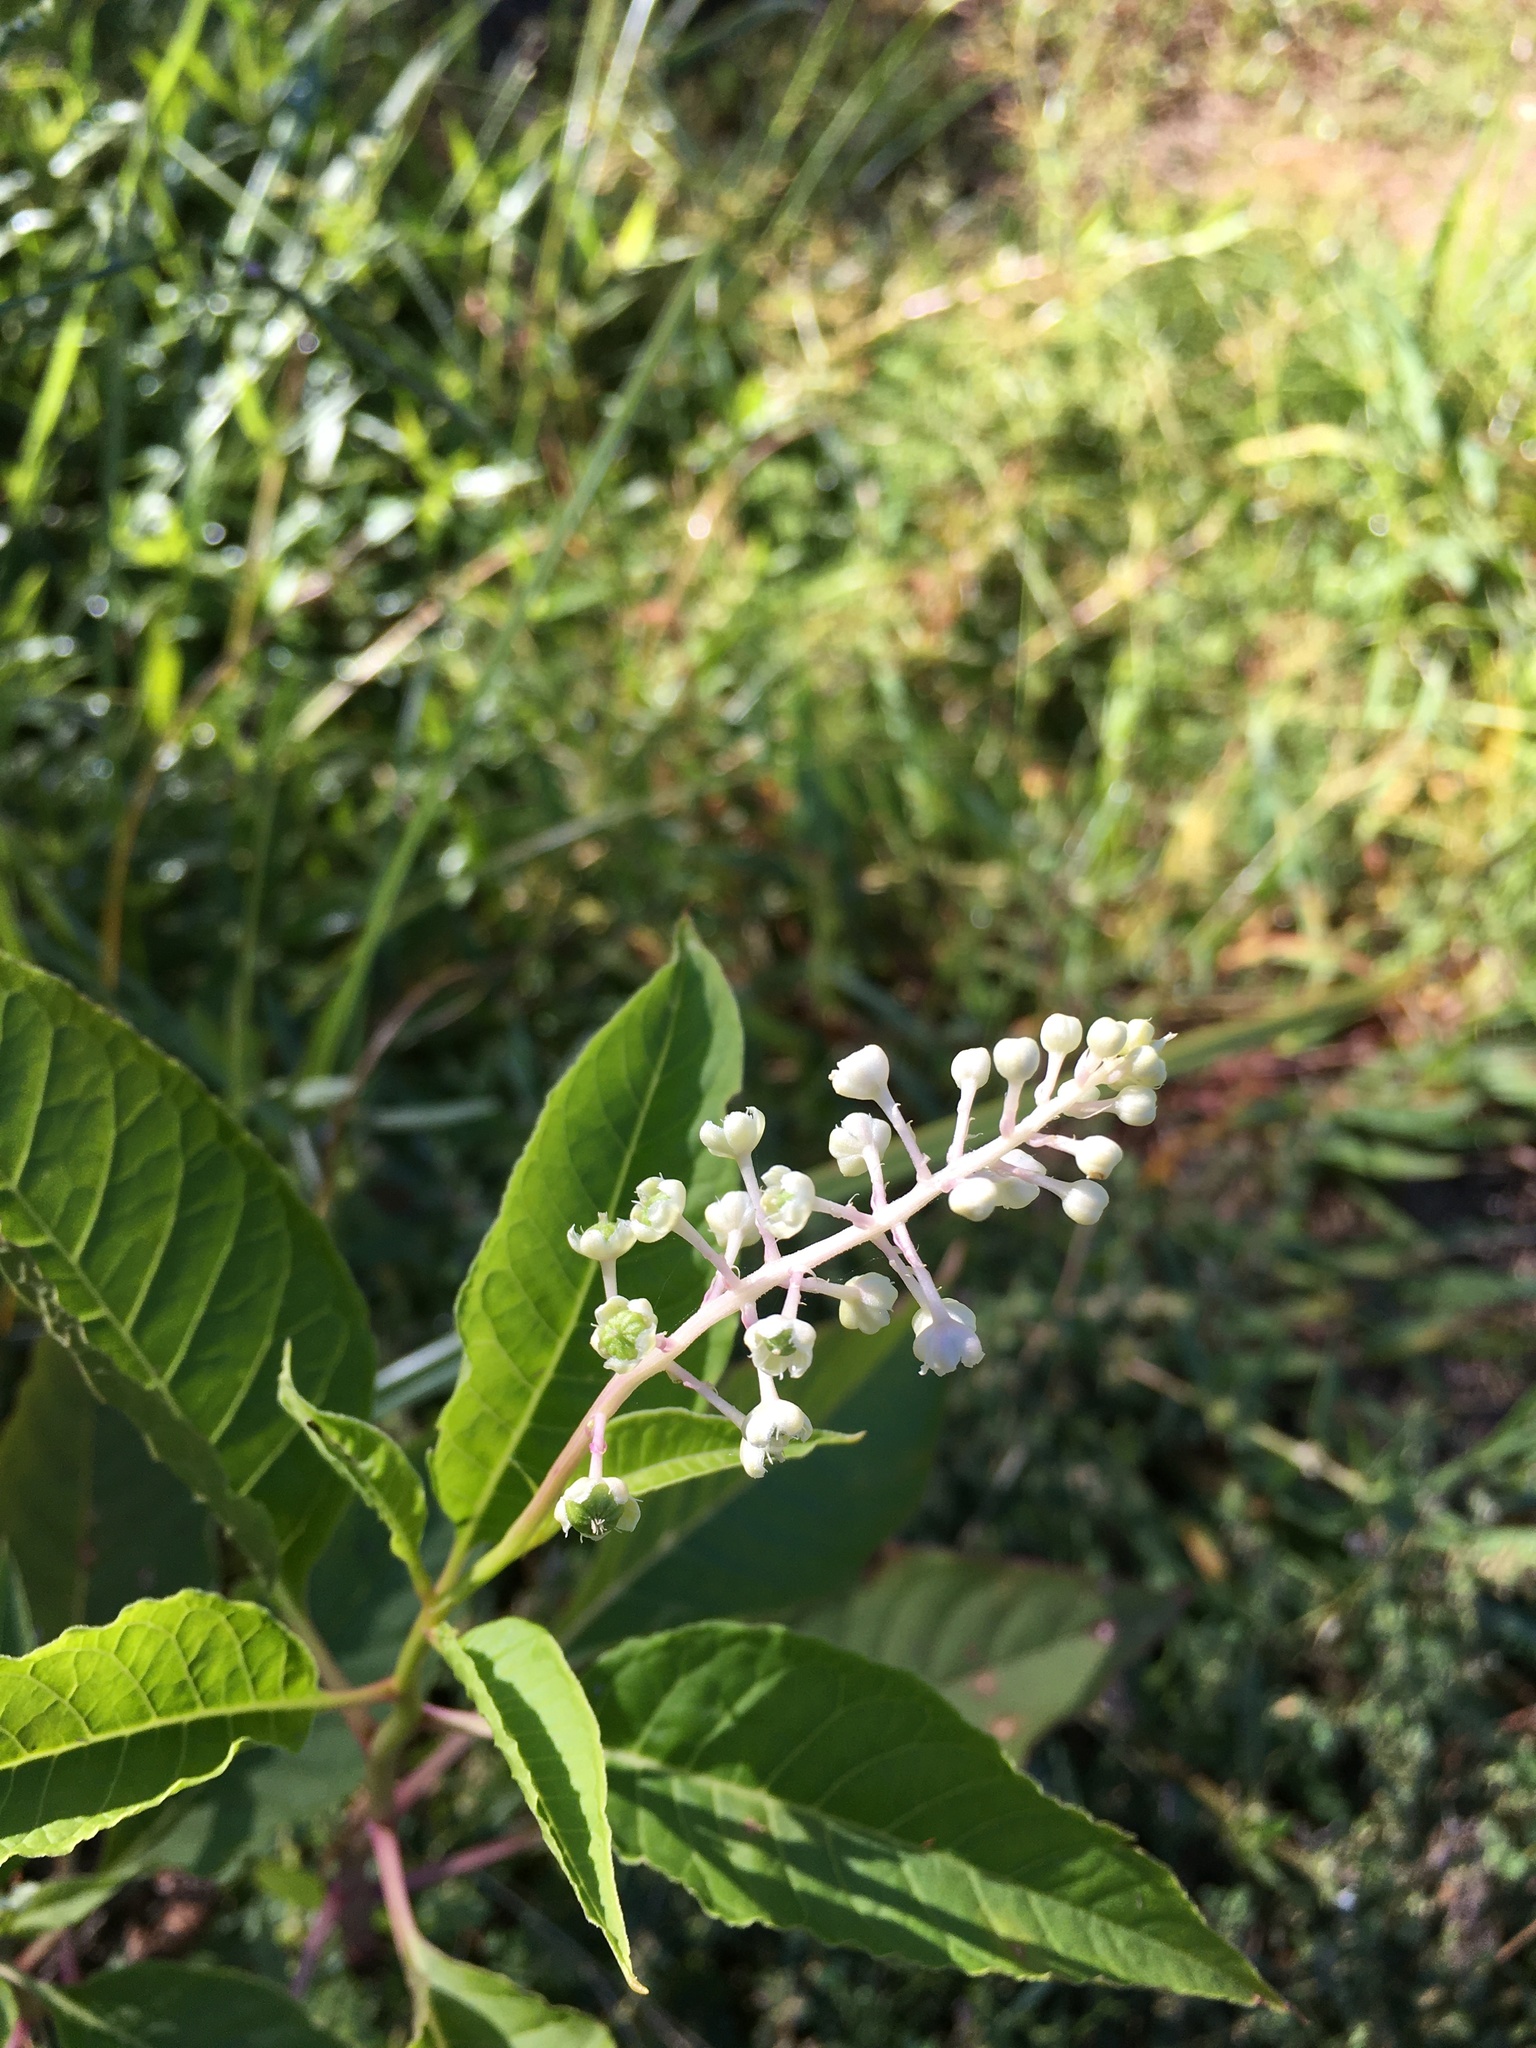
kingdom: Plantae
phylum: Tracheophyta
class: Magnoliopsida
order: Caryophyllales
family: Phytolaccaceae
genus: Phytolacca
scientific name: Phytolacca americana
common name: American pokeweed
